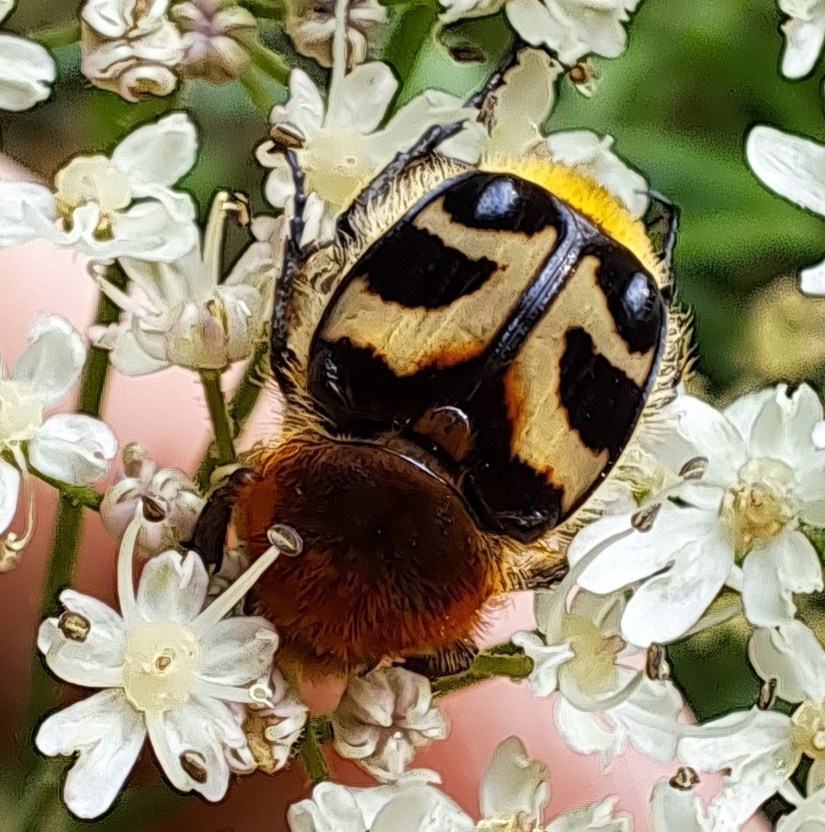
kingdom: Animalia
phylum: Arthropoda
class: Insecta
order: Coleoptera
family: Scarabaeidae
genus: Trichius
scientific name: Trichius fasciatus
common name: Bee beetle
